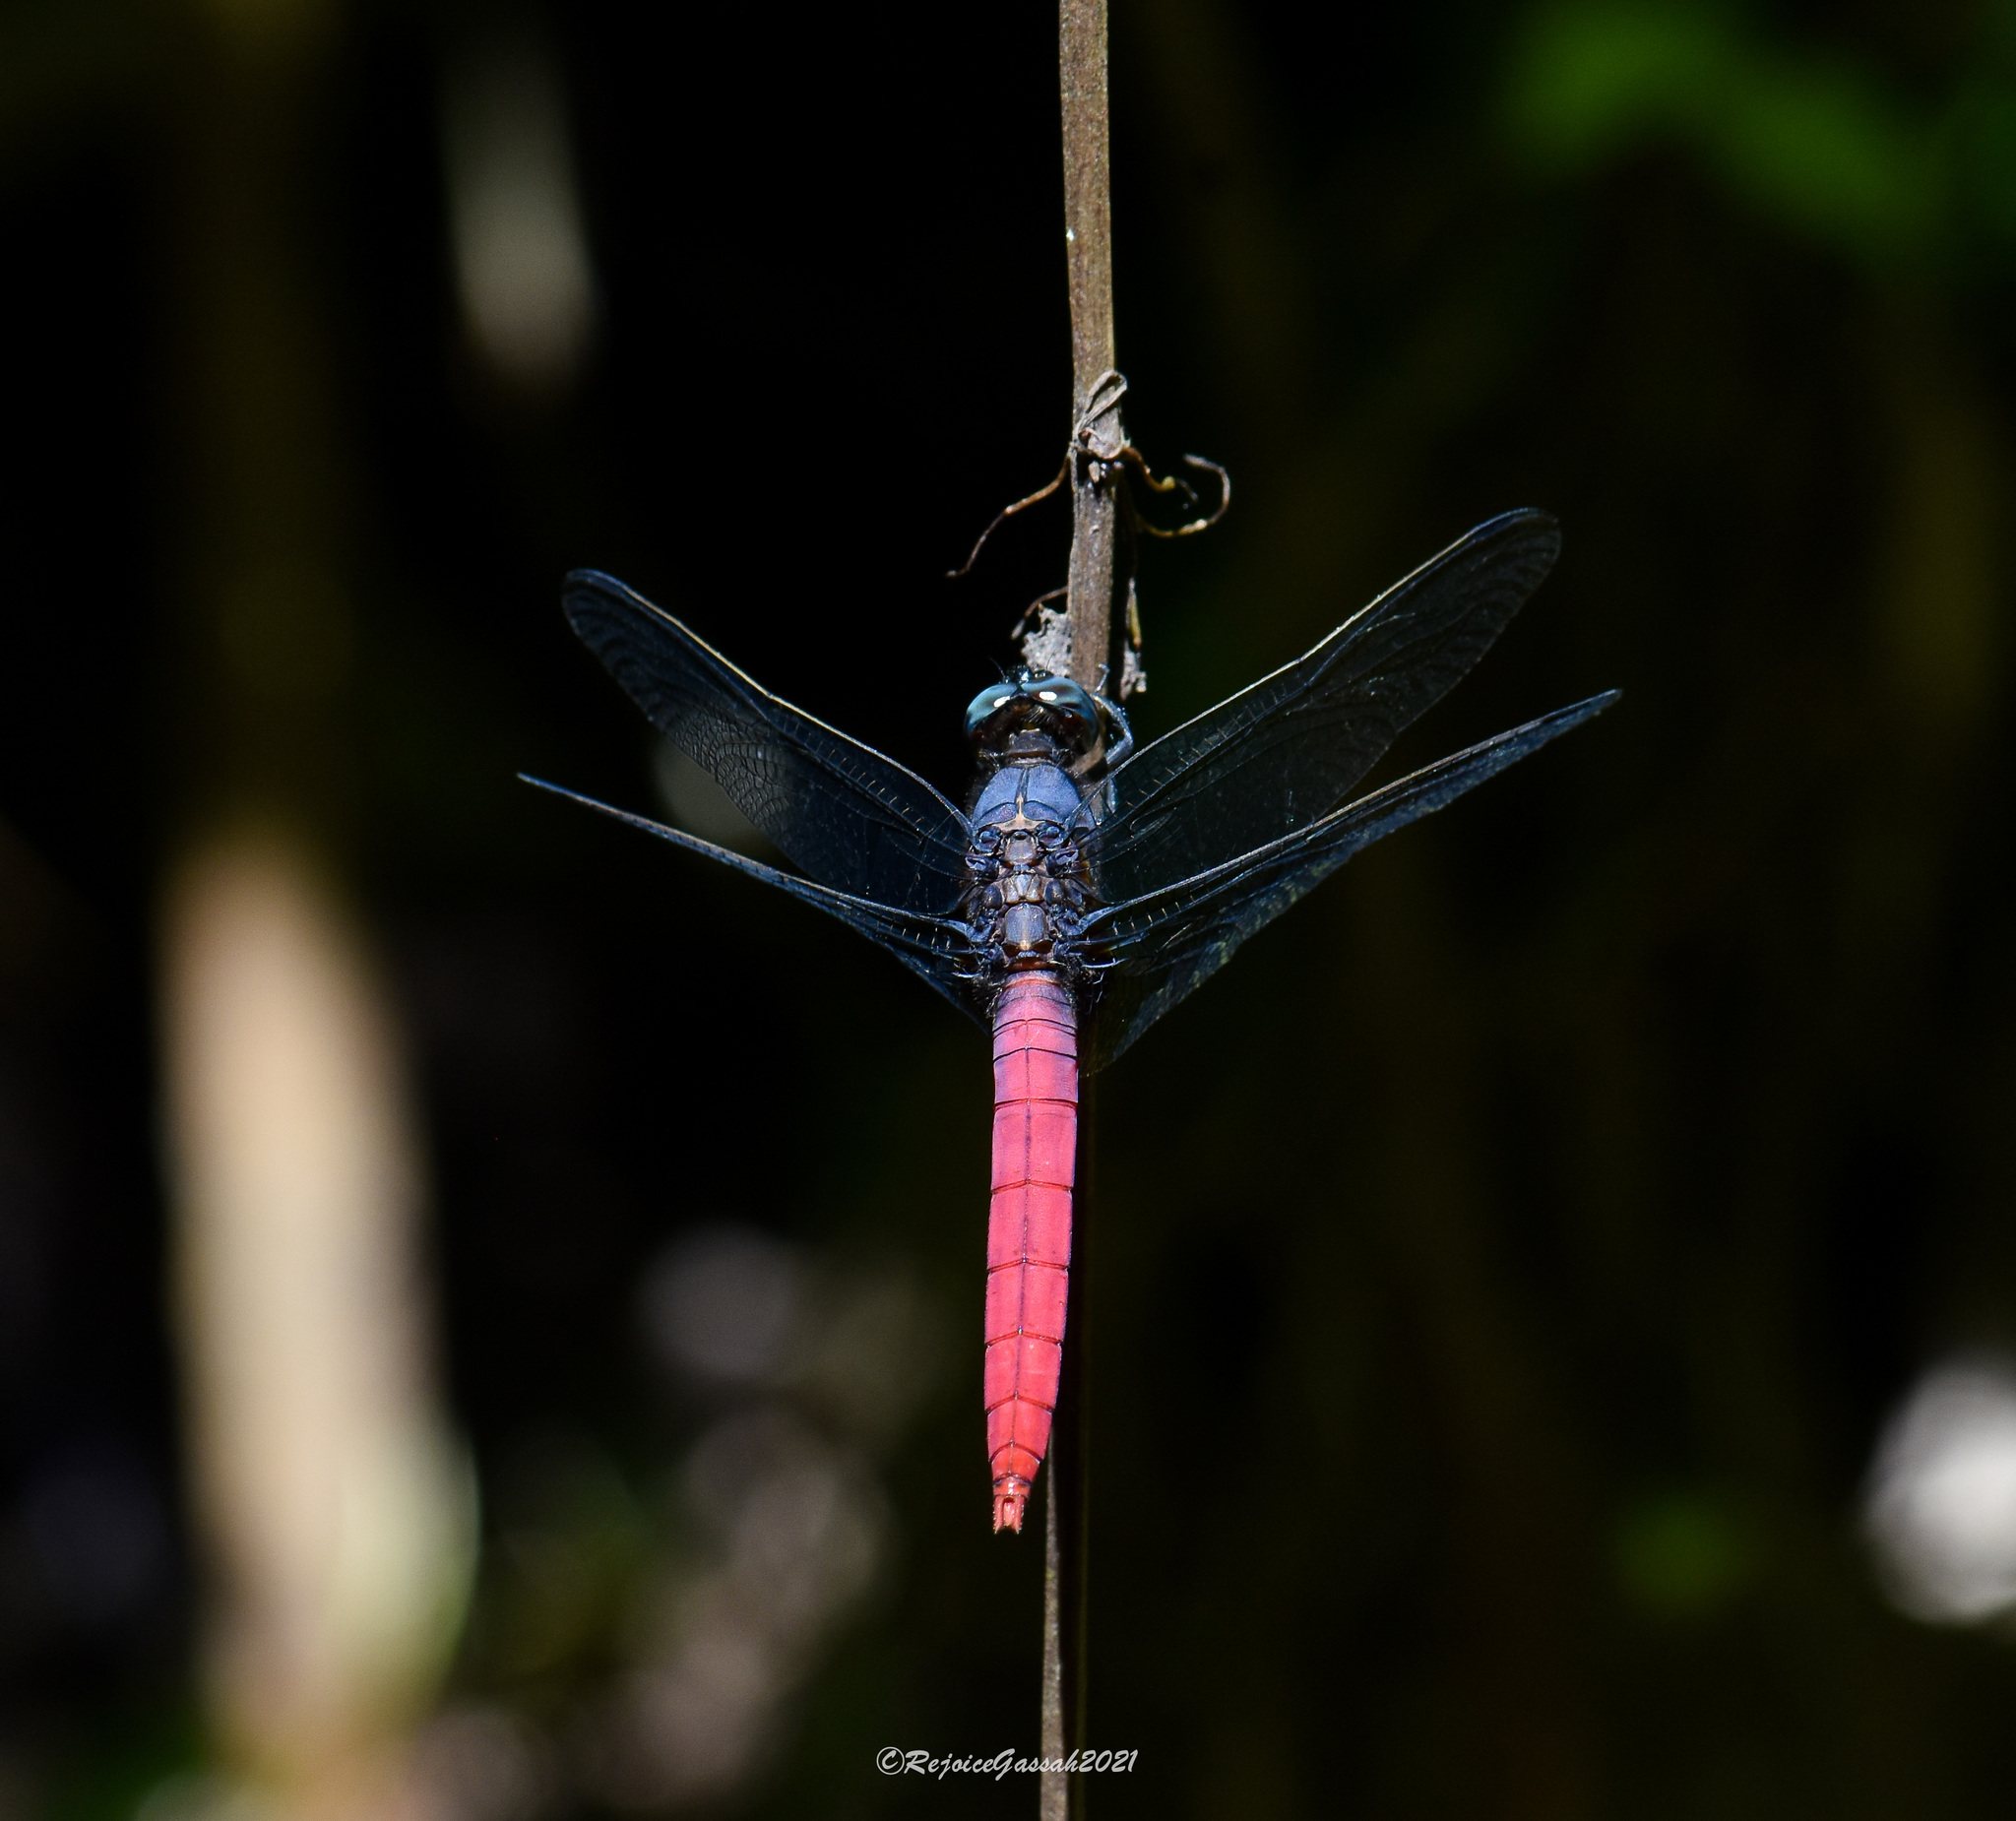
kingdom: Animalia
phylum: Arthropoda
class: Insecta
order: Odonata
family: Libellulidae
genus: Orthetrum
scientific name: Orthetrum pruinosum
